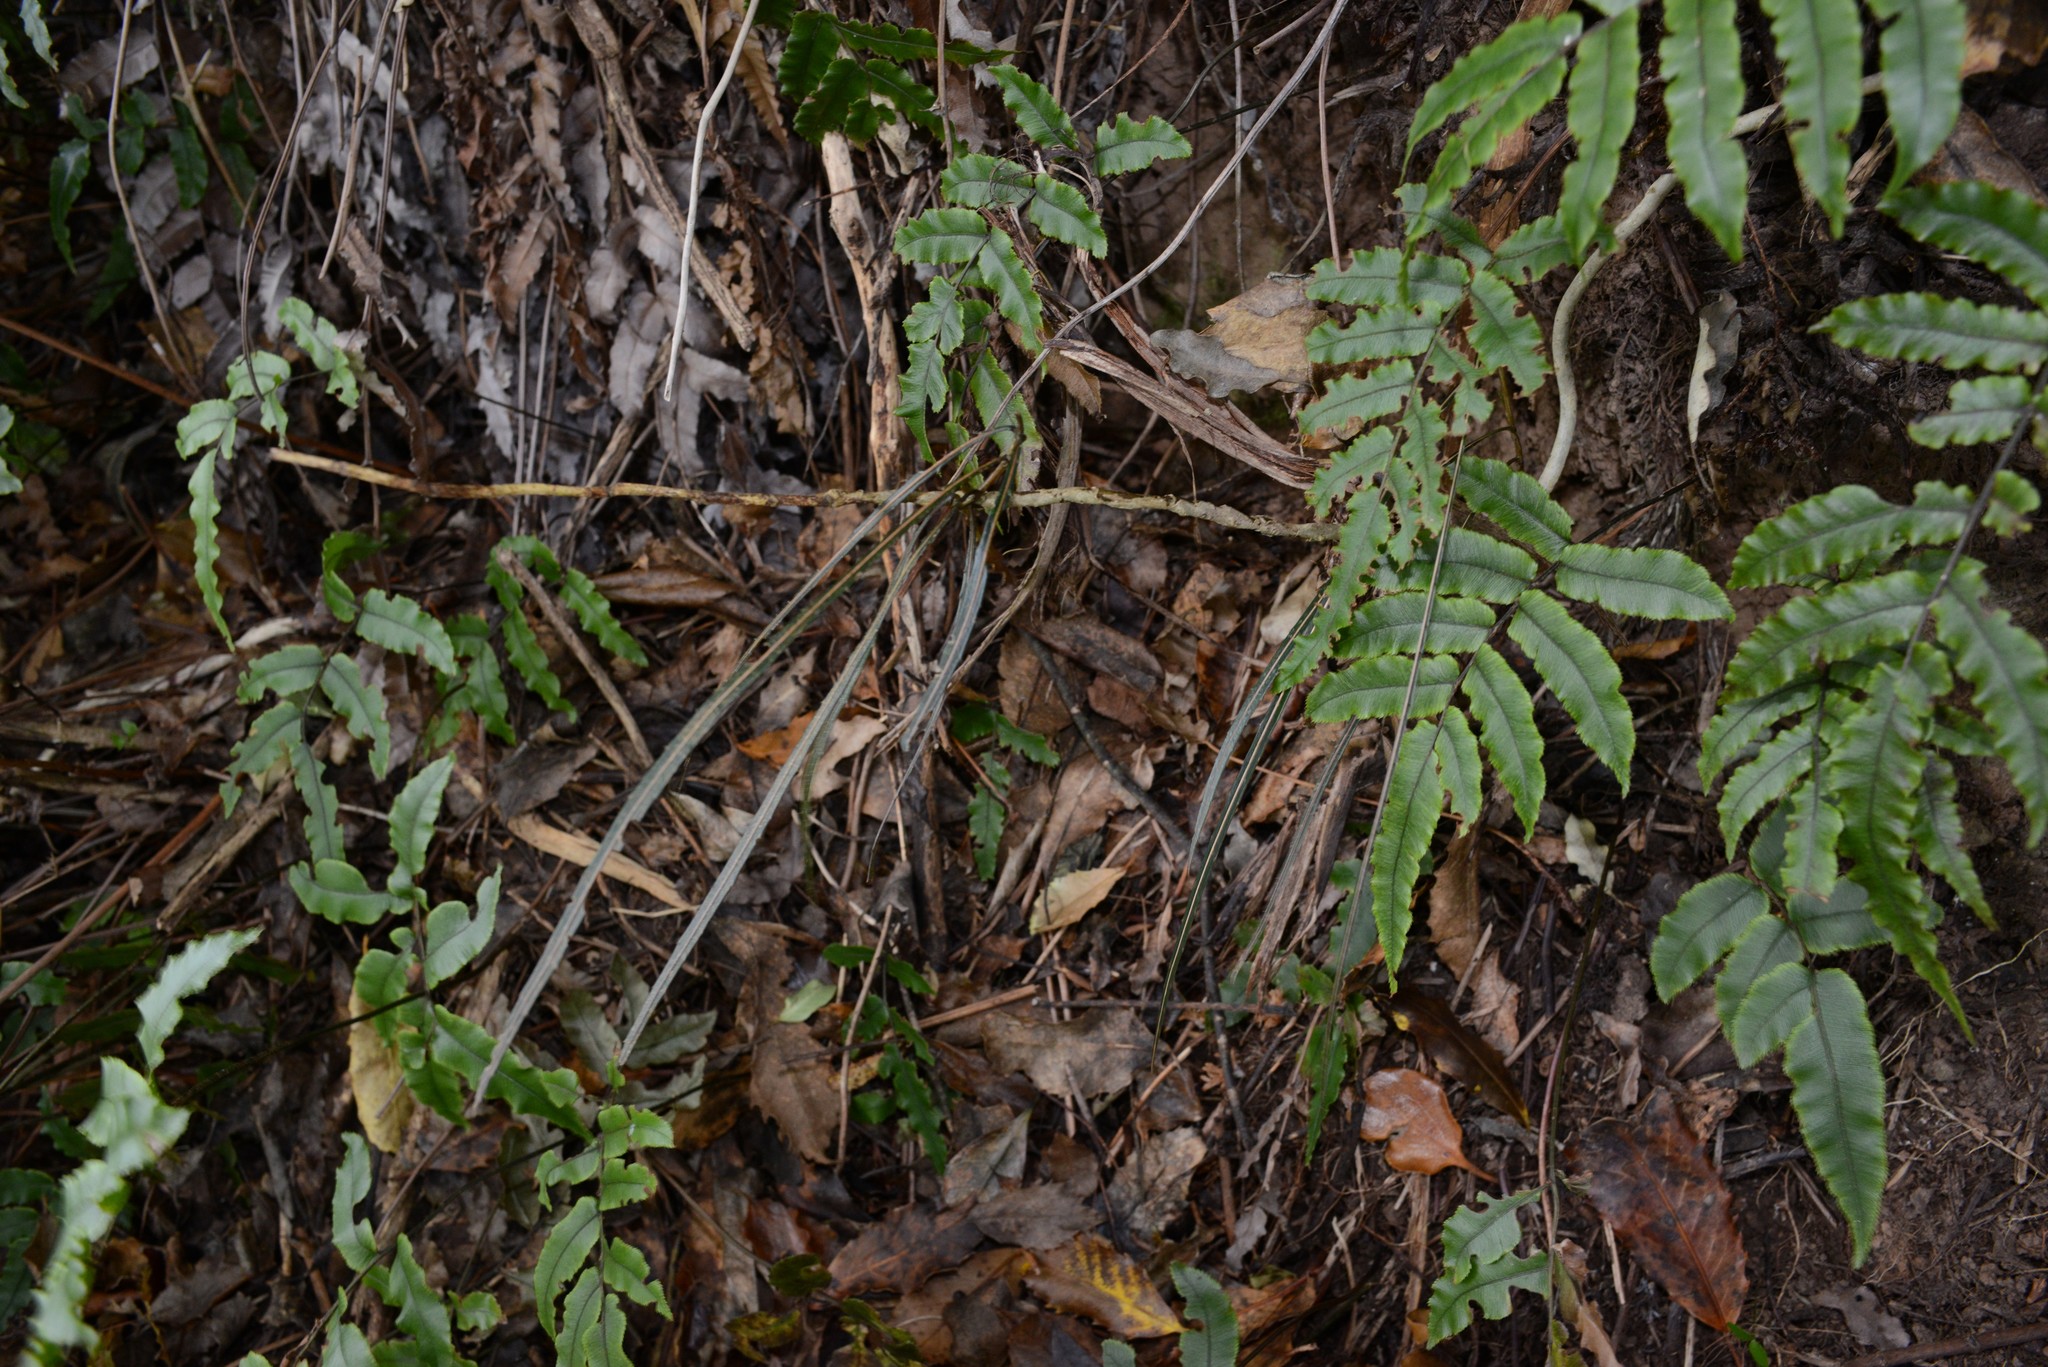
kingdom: Plantae
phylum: Tracheophyta
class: Polypodiopsida
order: Polypodiales
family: Blechnaceae
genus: Parablechnum
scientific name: Parablechnum procerum
